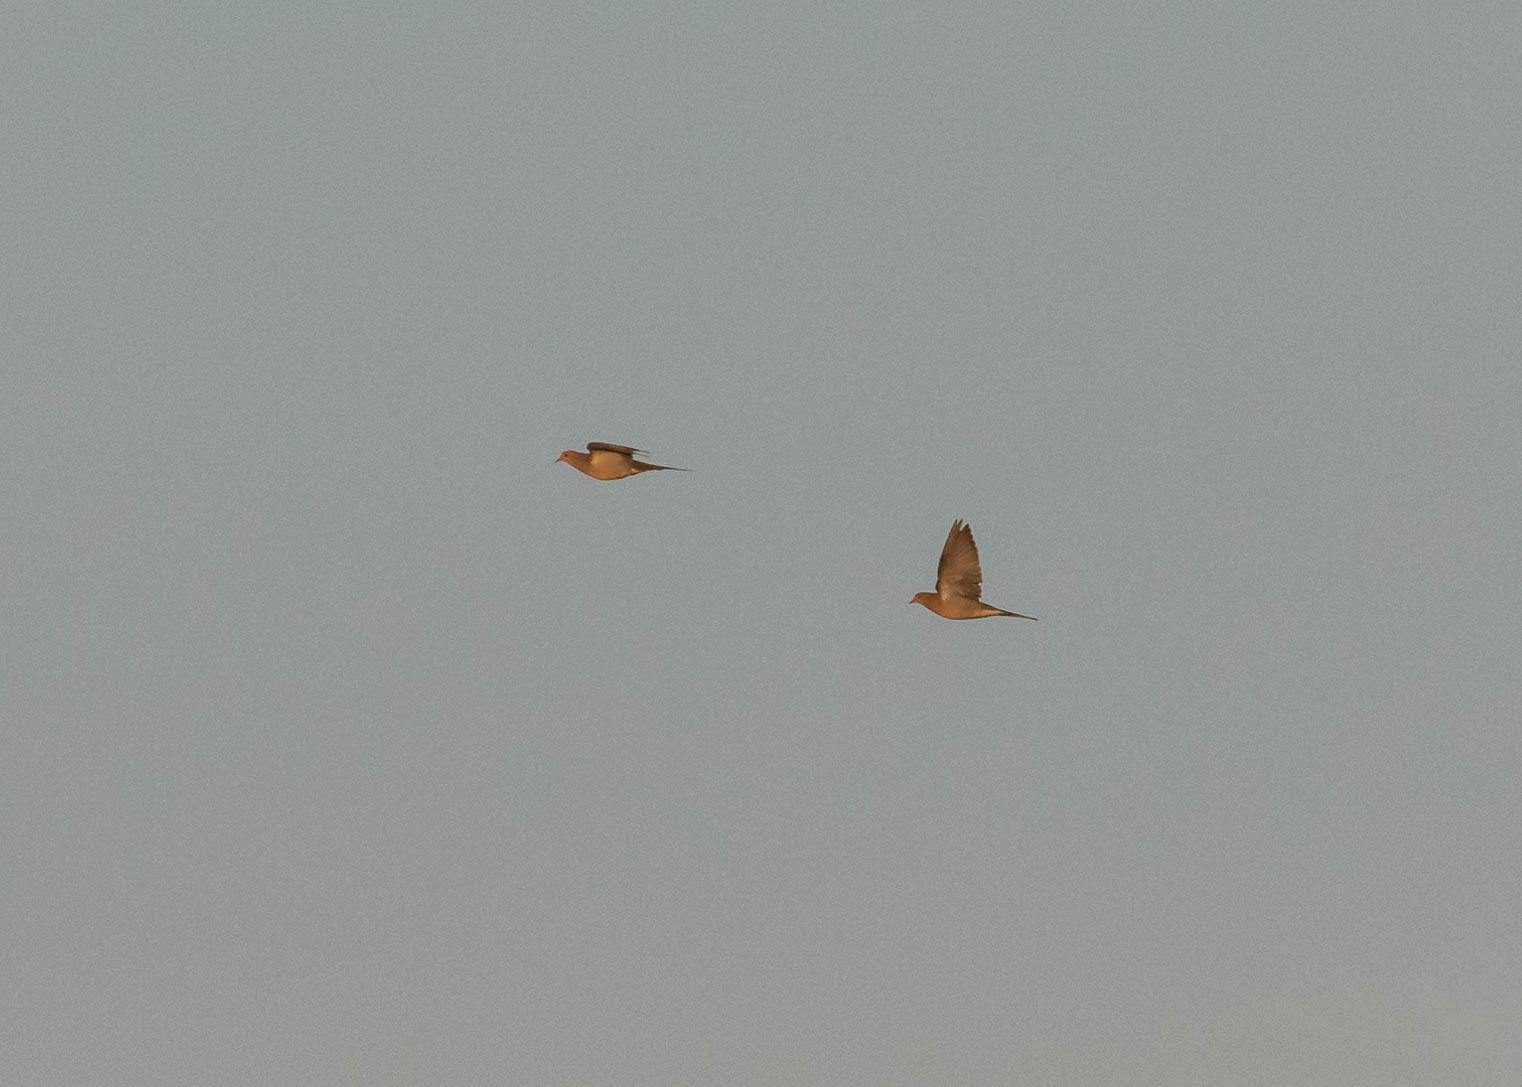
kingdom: Animalia
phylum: Chordata
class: Aves
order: Columbiformes
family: Columbidae
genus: Zenaida
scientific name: Zenaida macroura
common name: Mourning dove
